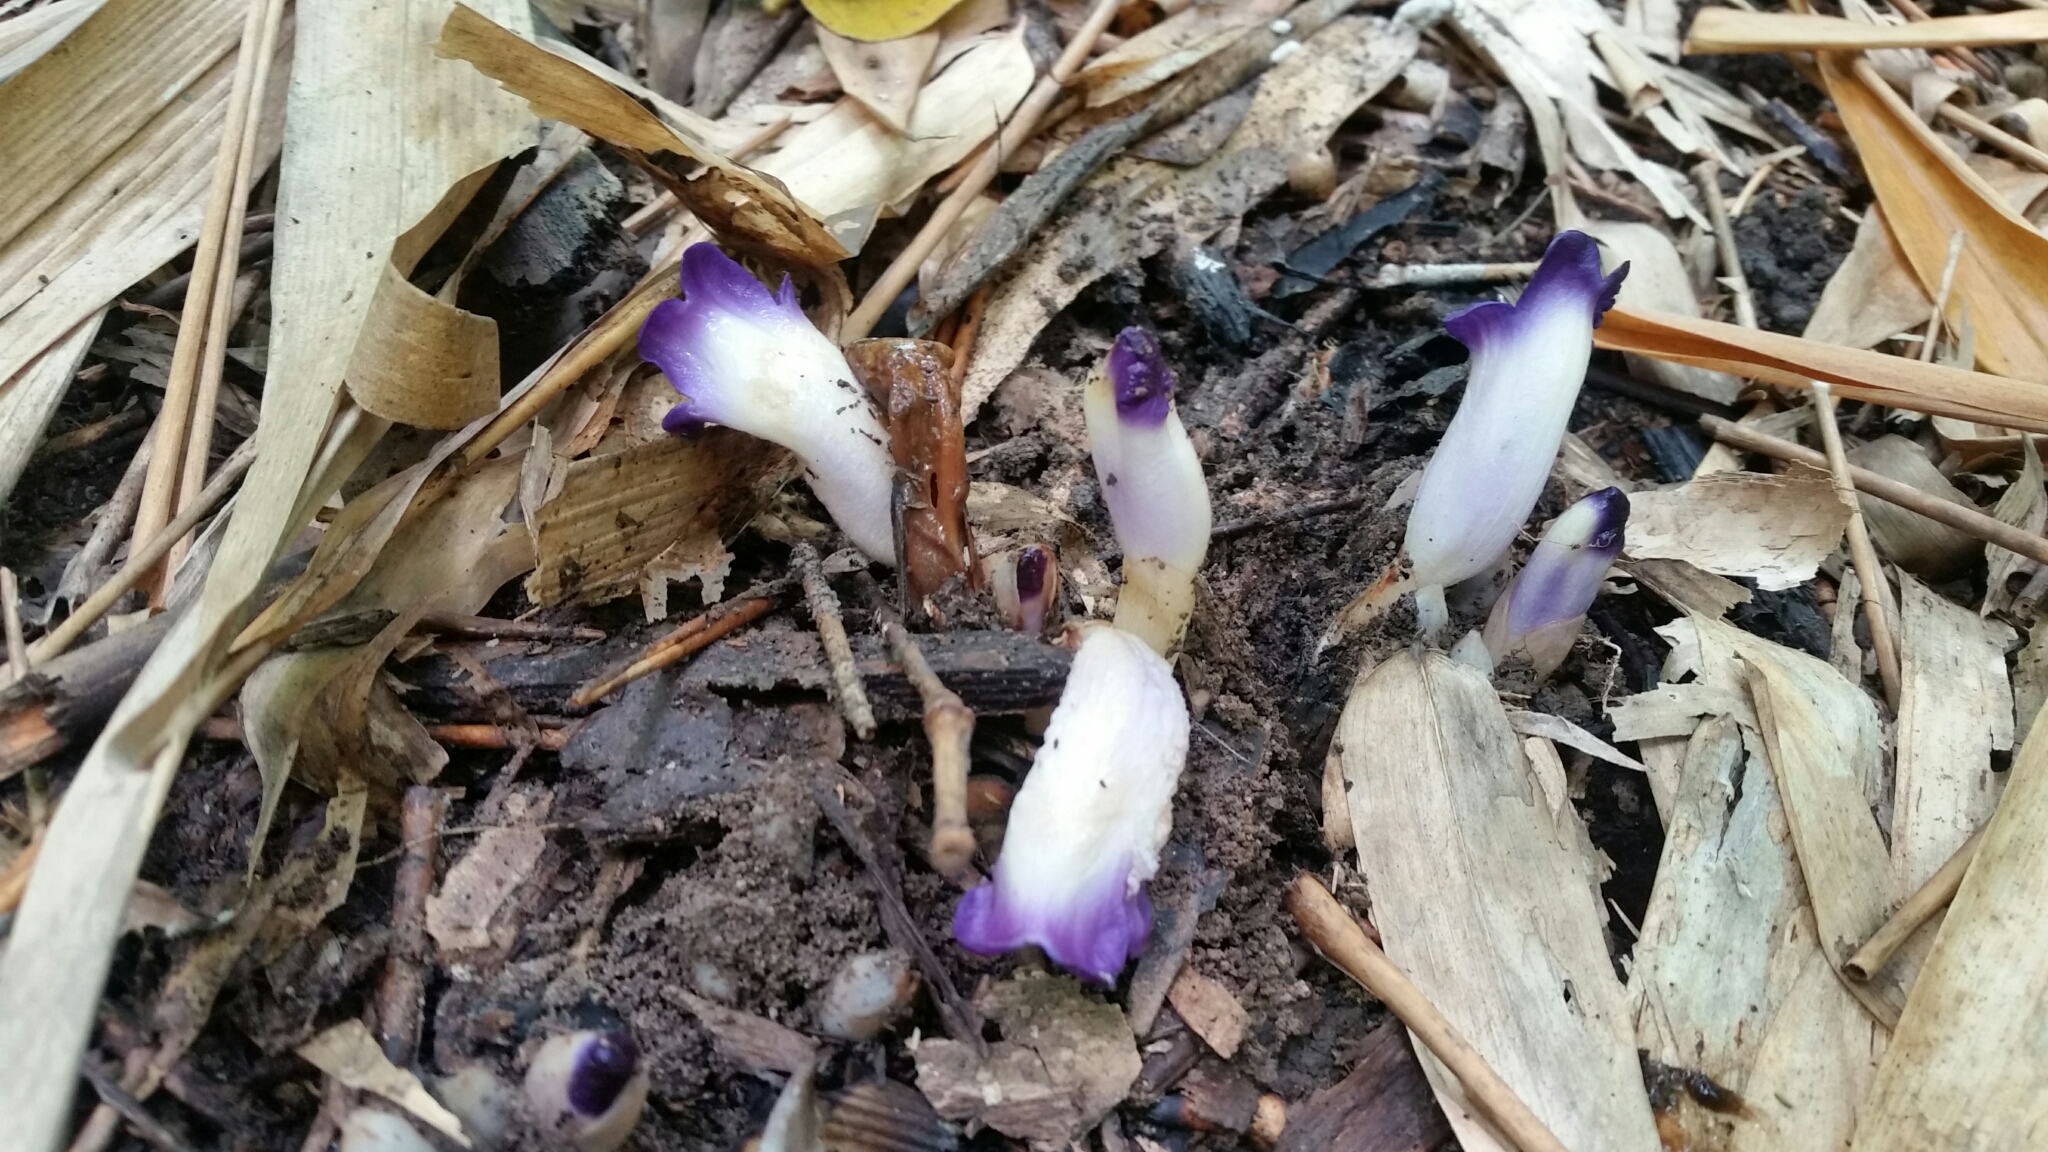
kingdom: Plantae
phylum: Tracheophyta
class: Magnoliopsida
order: Lamiales
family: Orobanchaceae
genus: Christisonia
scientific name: Christisonia siamensis
